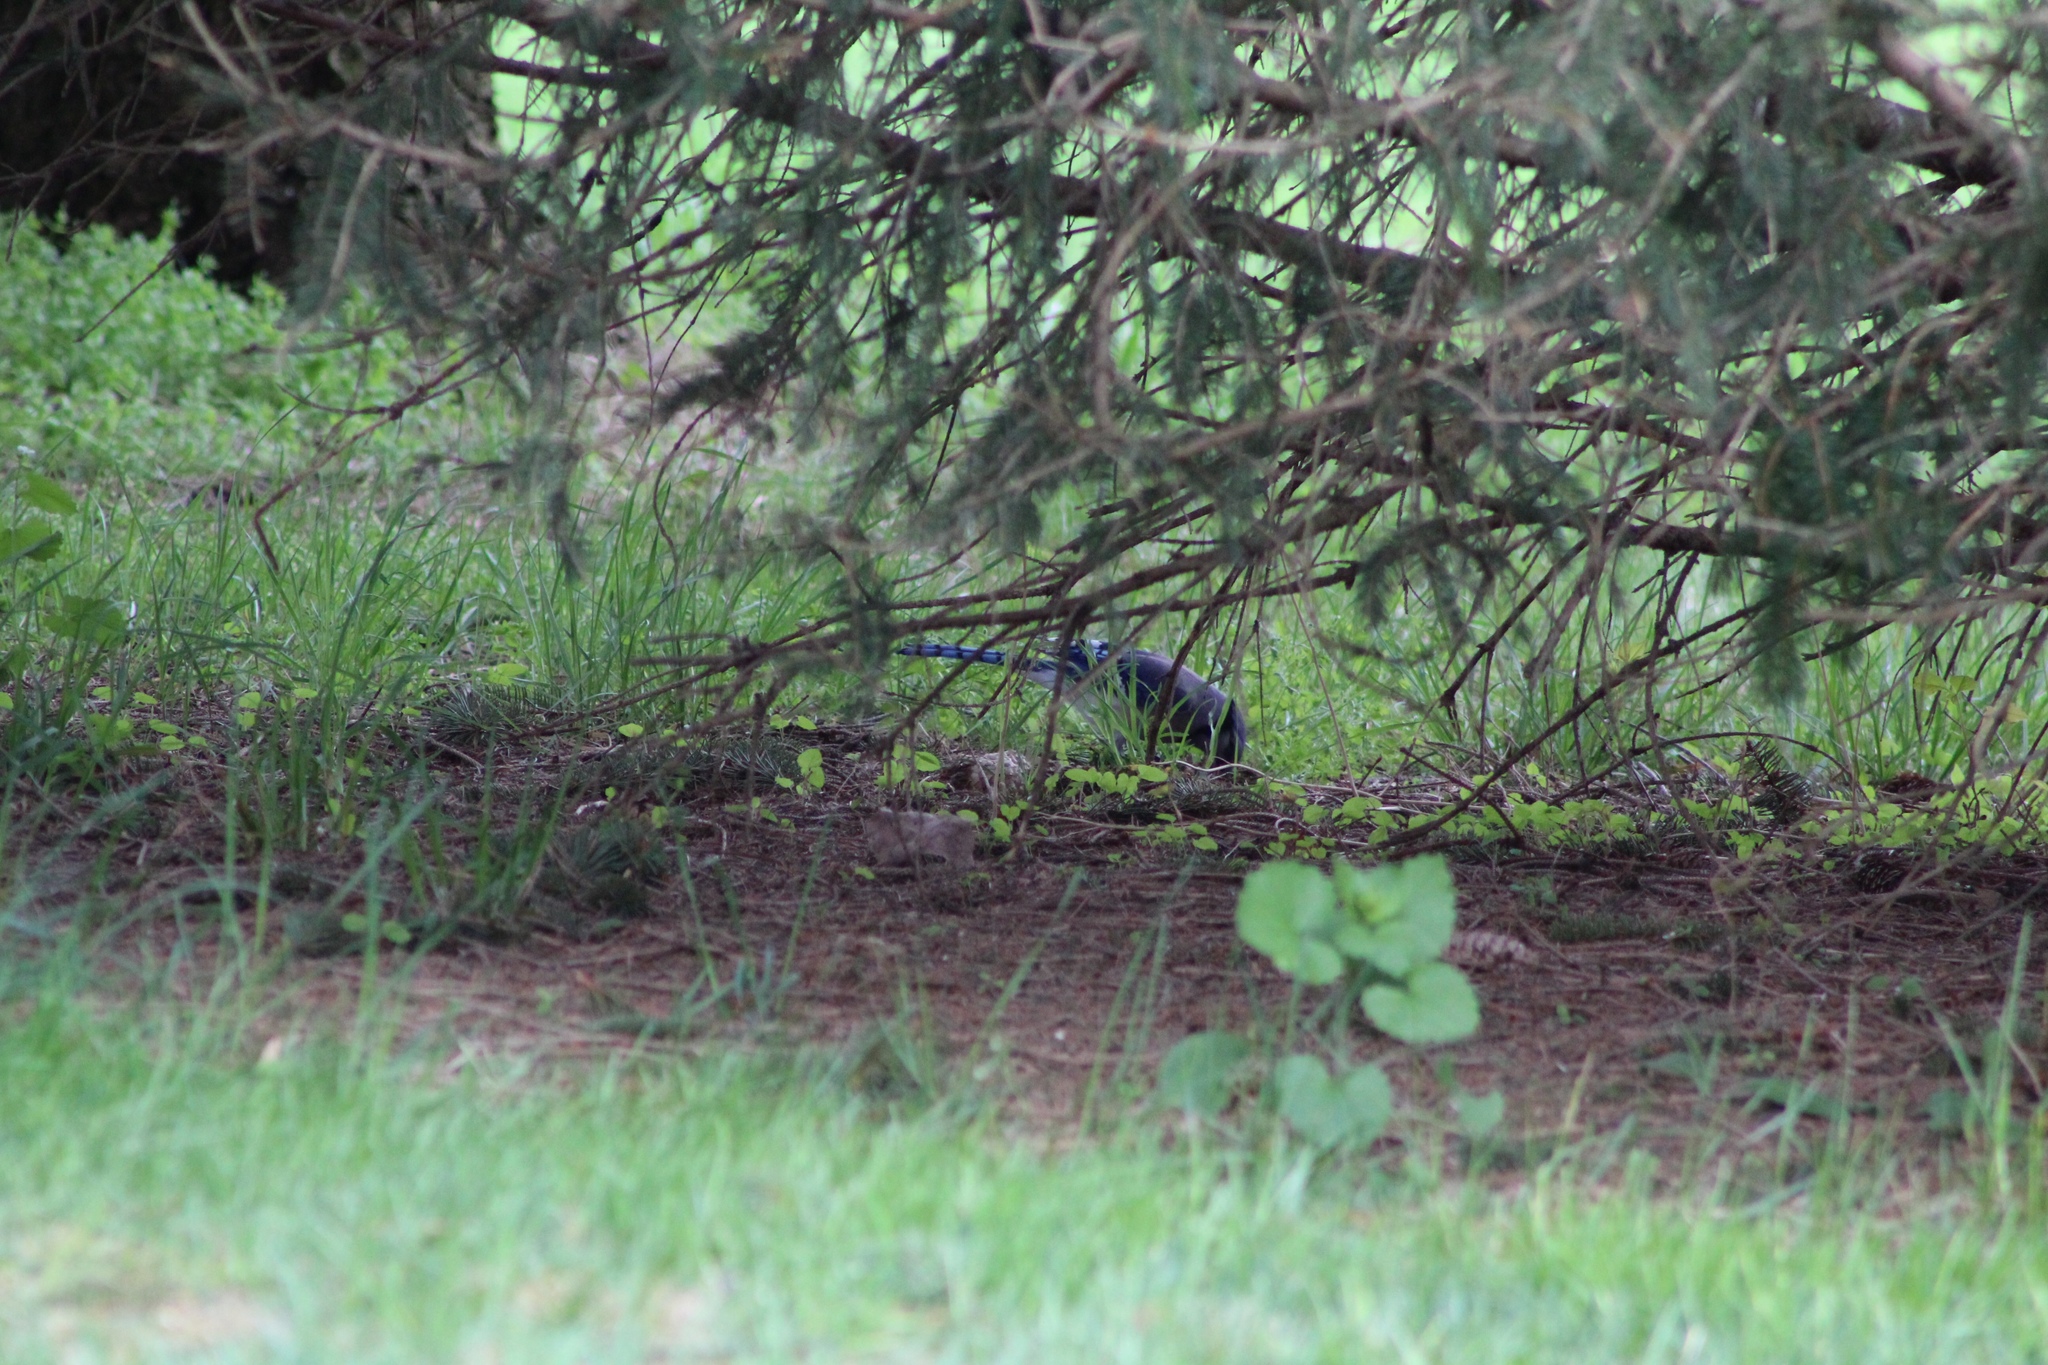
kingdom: Animalia
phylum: Chordata
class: Aves
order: Passeriformes
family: Corvidae
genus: Cyanocitta
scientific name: Cyanocitta cristata
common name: Blue jay
